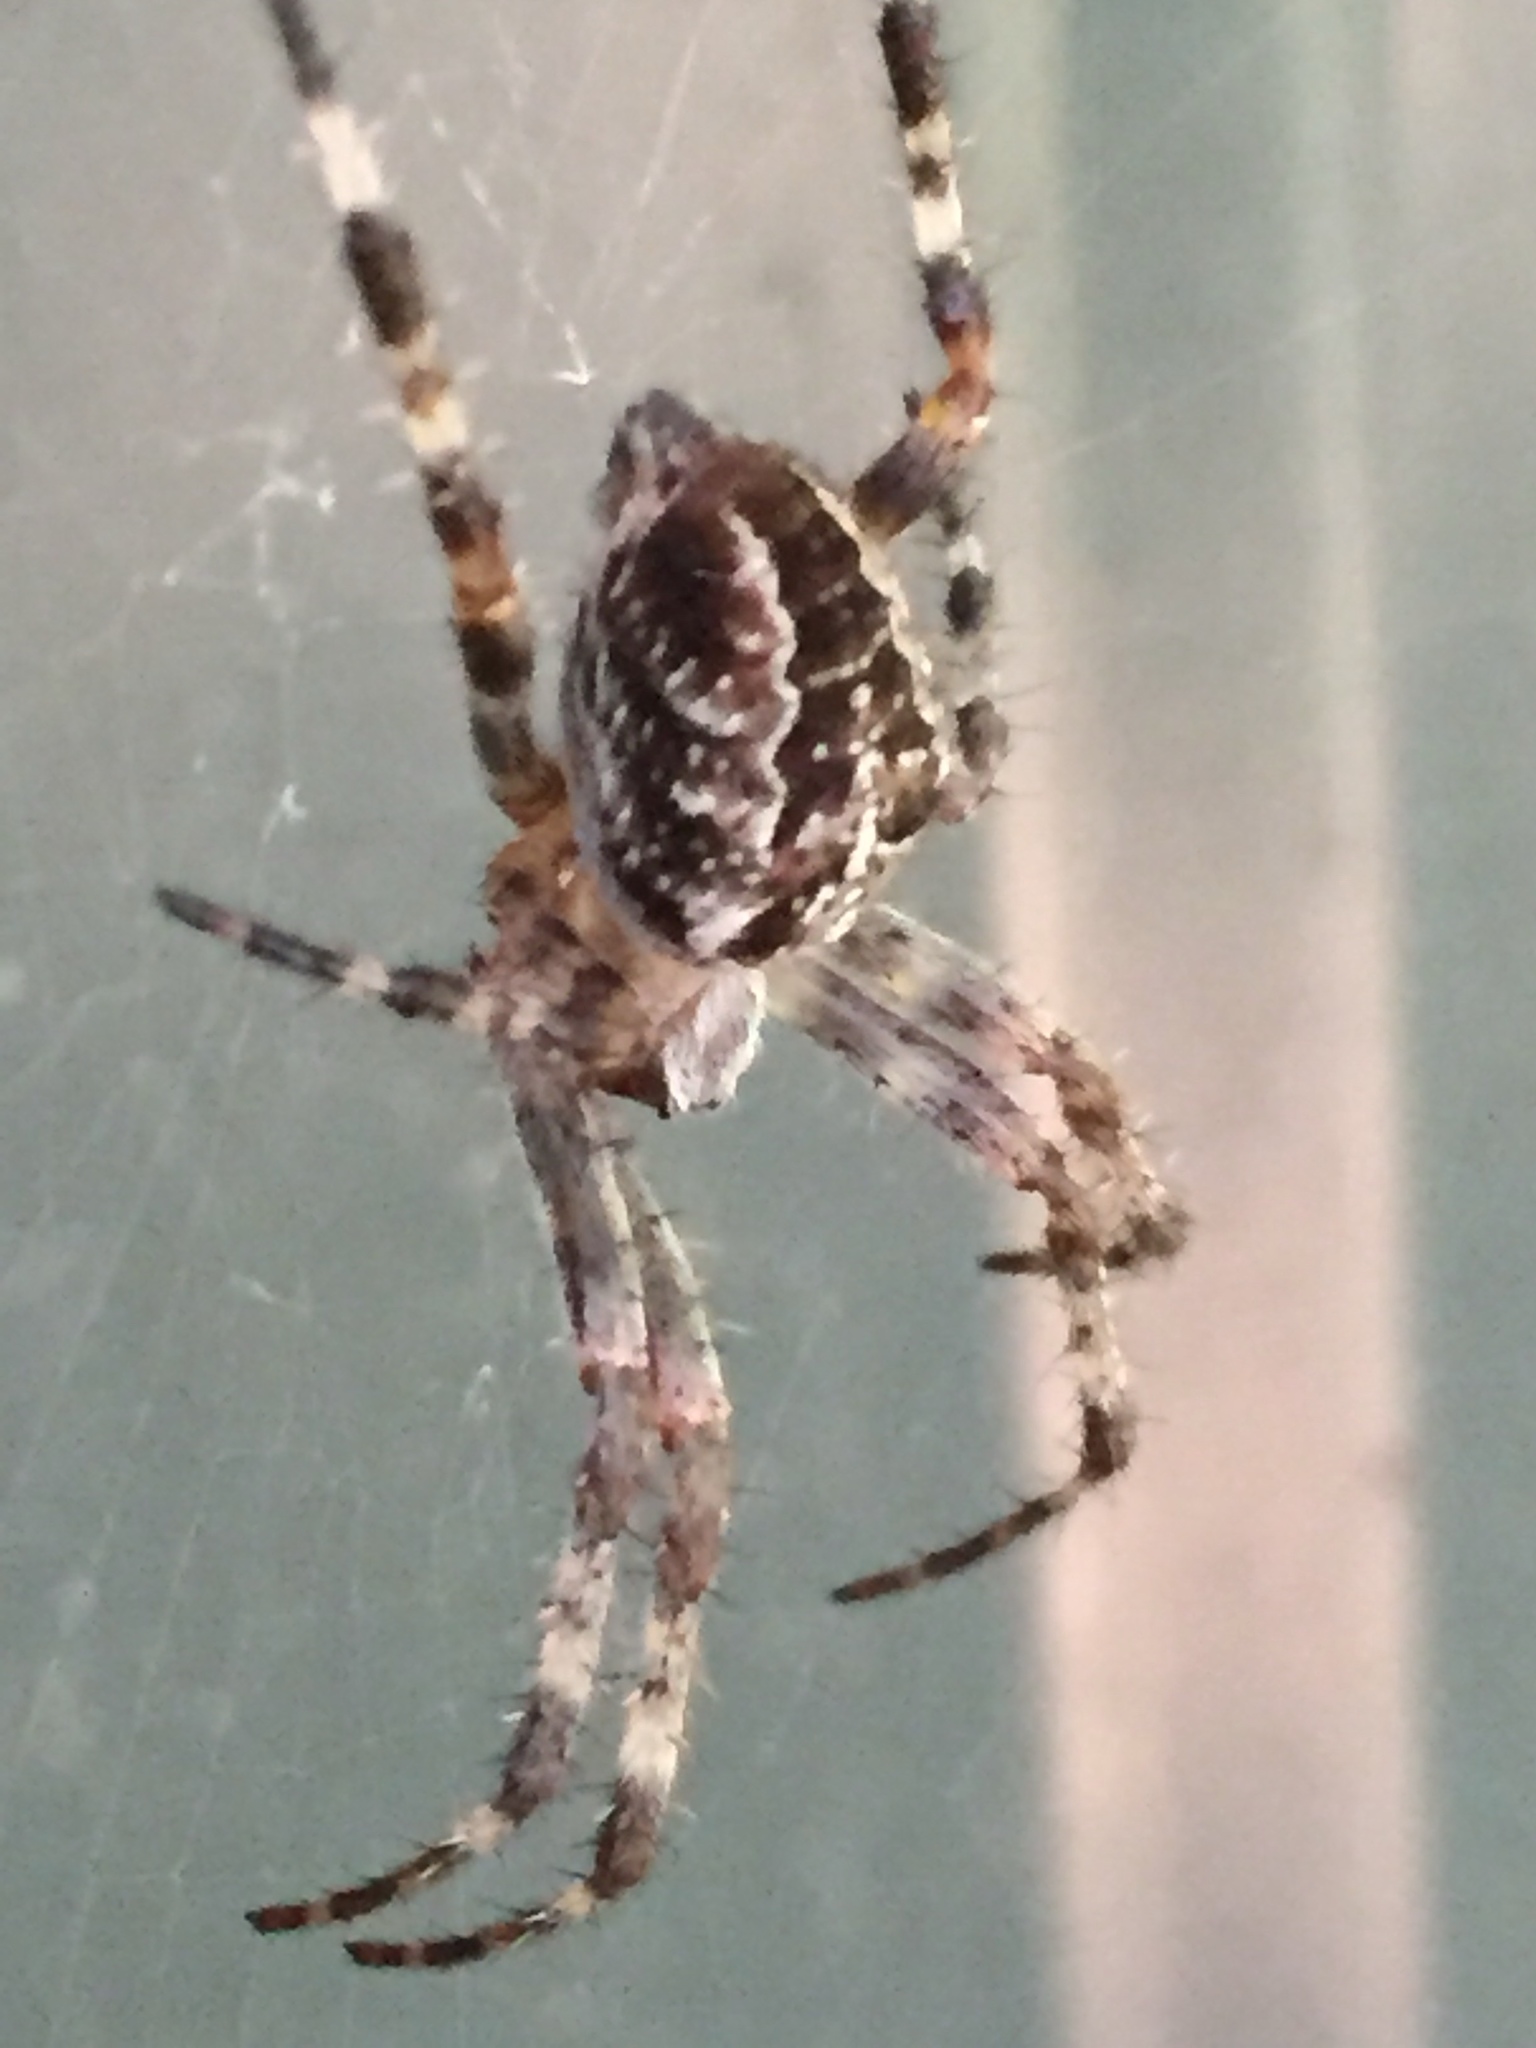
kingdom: Animalia
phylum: Arthropoda
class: Arachnida
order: Araneae
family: Araneidae
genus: Araneus
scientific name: Araneus diadematus
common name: Cross orbweaver
